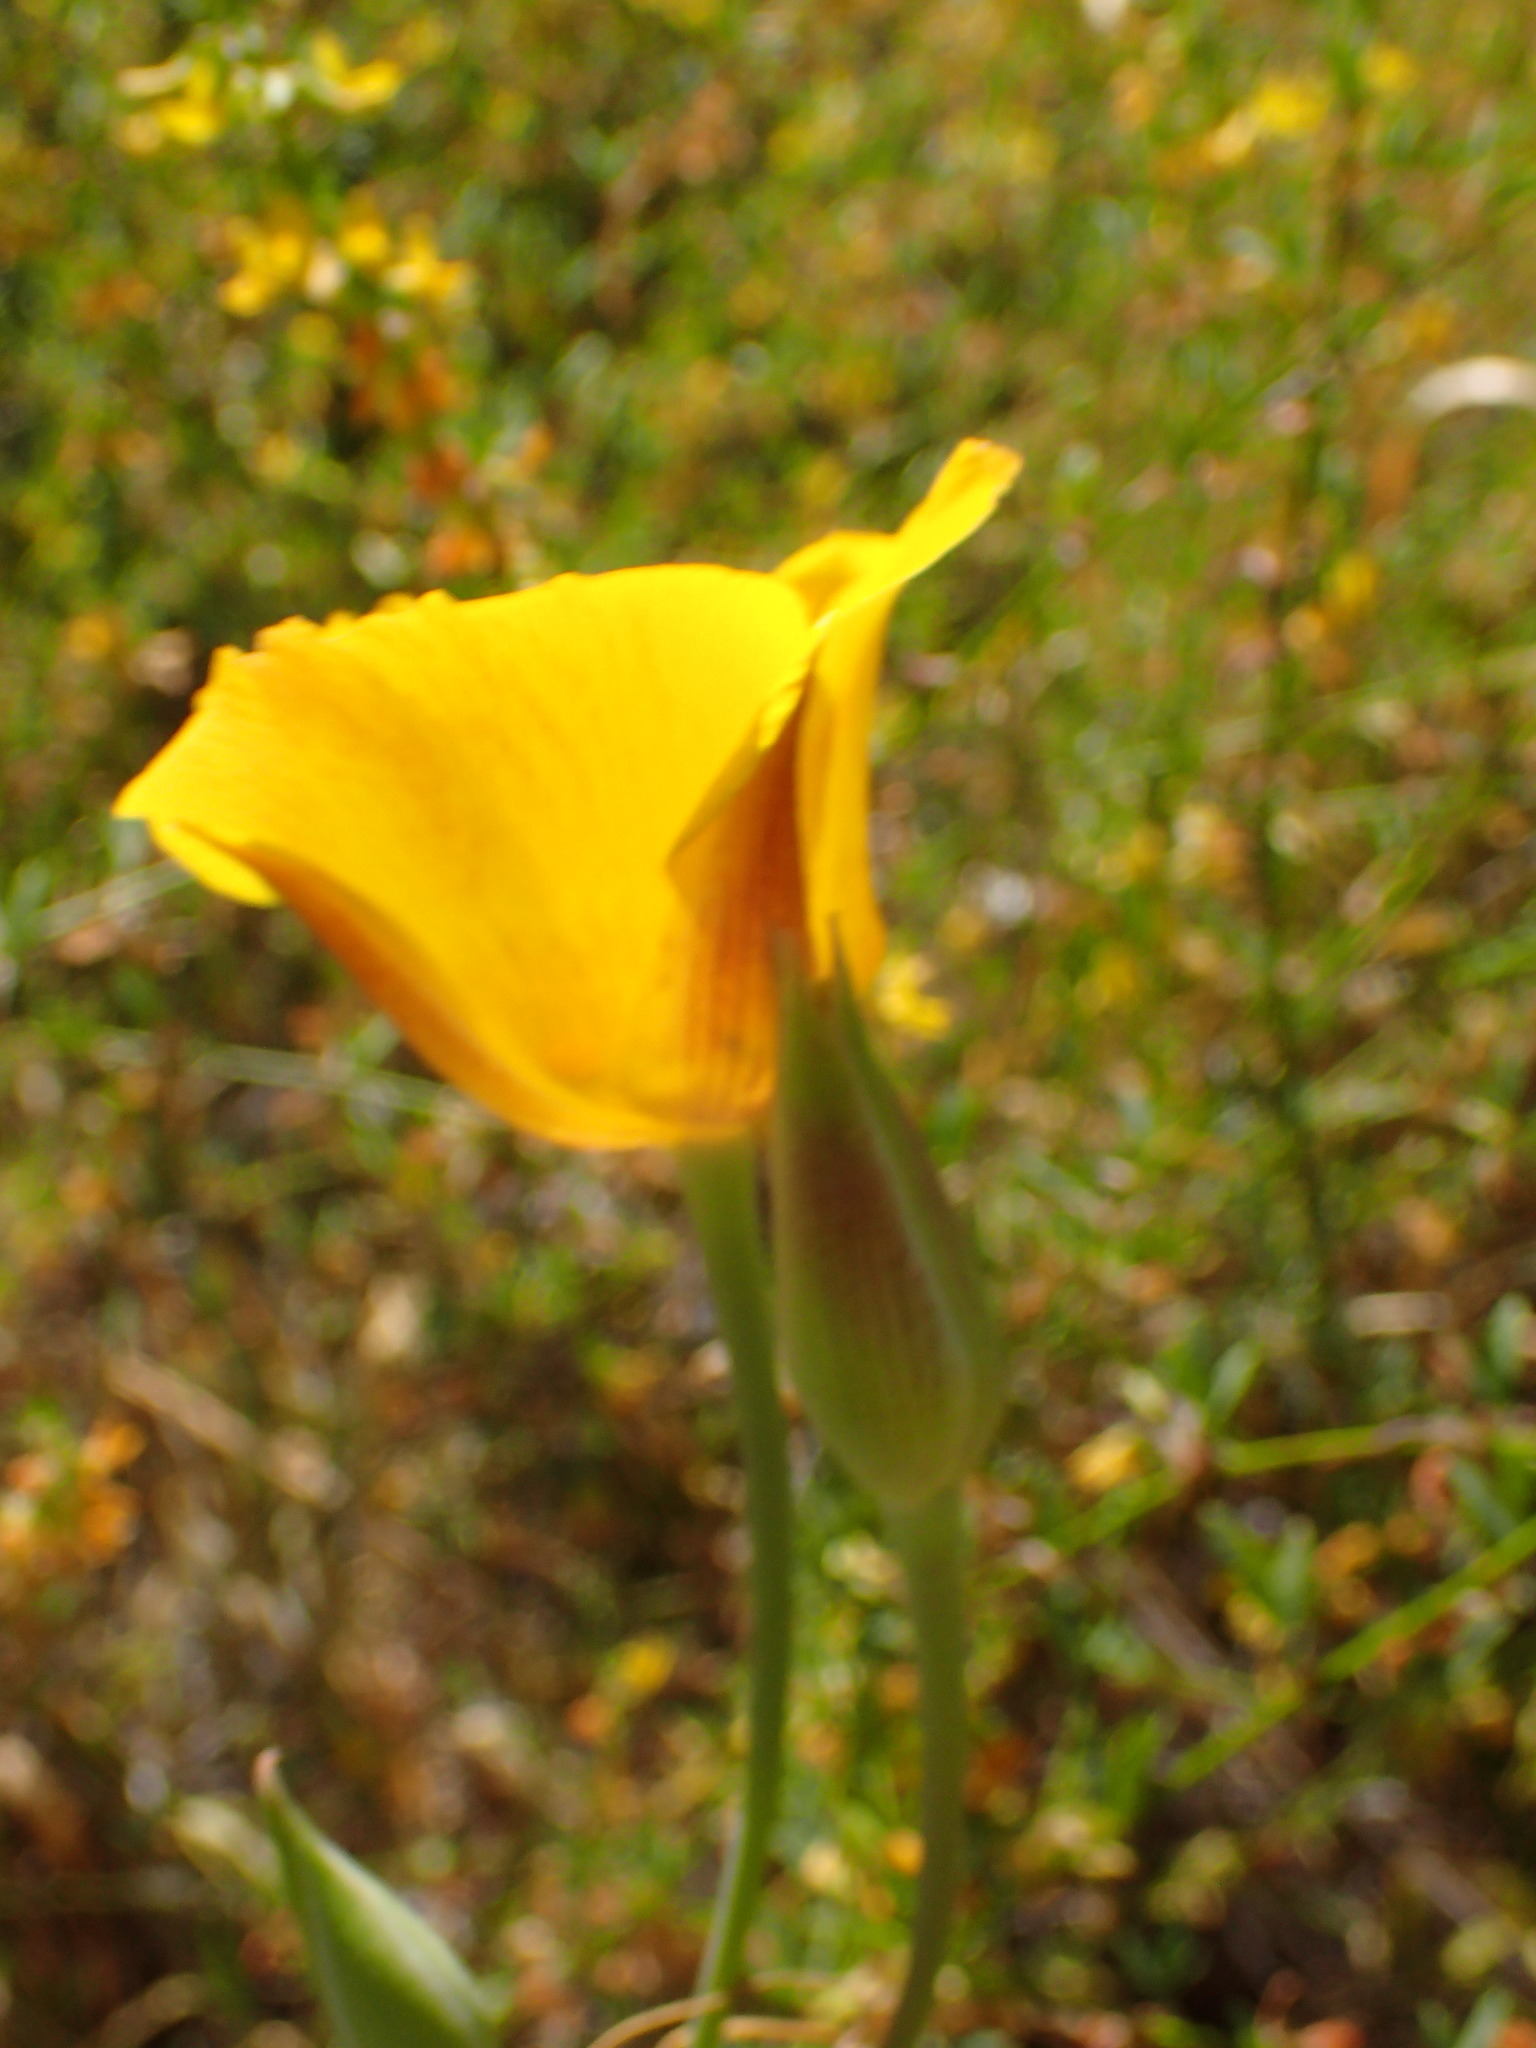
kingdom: Plantae
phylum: Tracheophyta
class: Liliopsida
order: Liliales
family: Liliaceae
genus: Calochortus
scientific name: Calochortus clavatus
